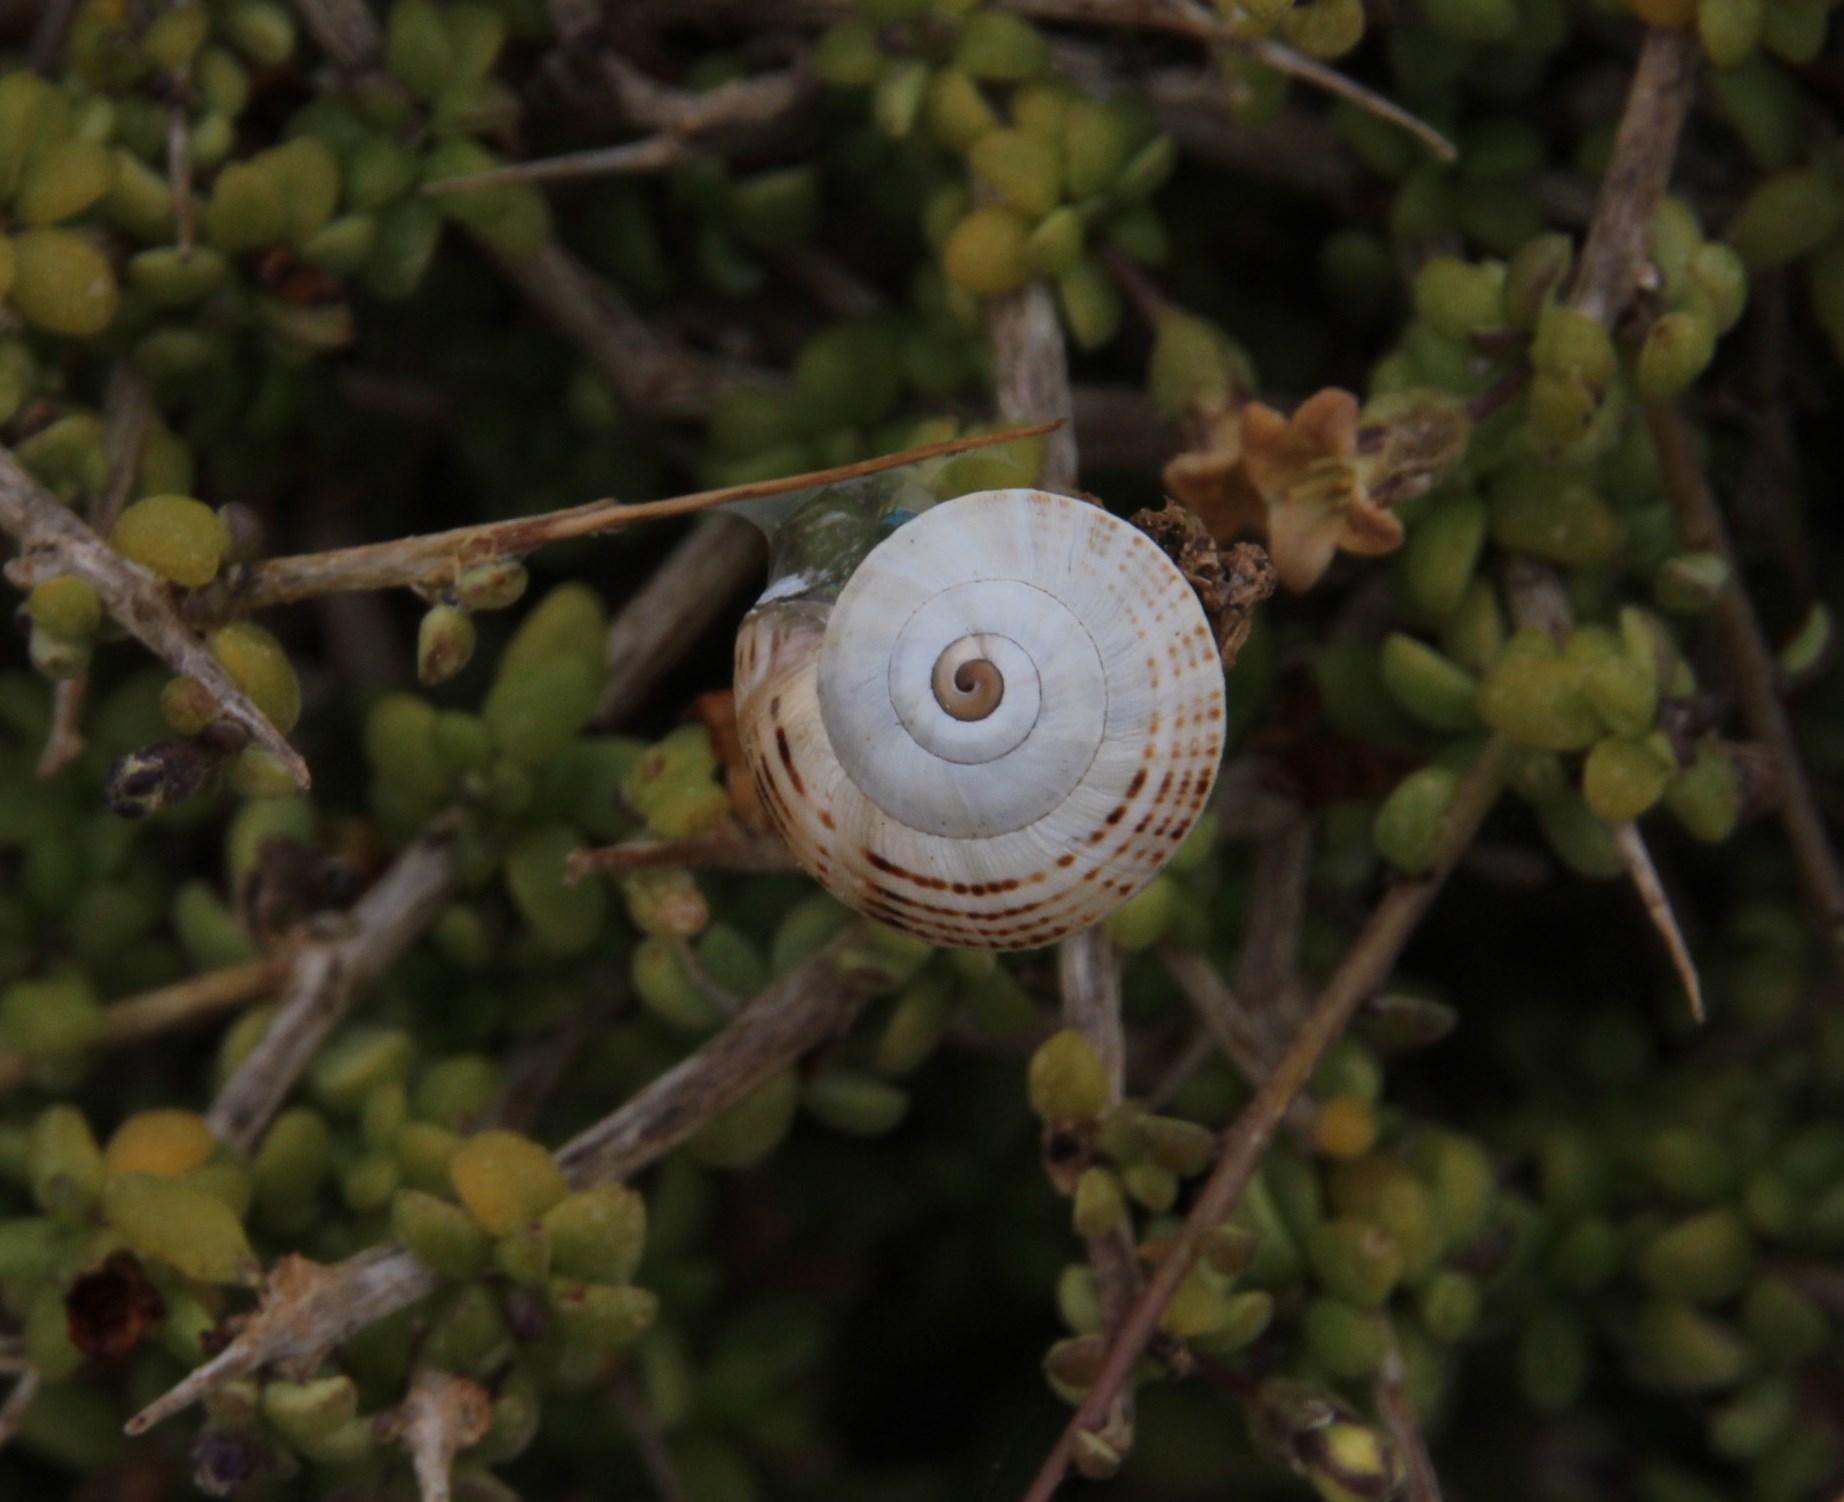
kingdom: Animalia
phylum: Mollusca
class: Gastropoda
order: Stylommatophora
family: Helicidae
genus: Theba
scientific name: Theba pisana
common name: White snail
